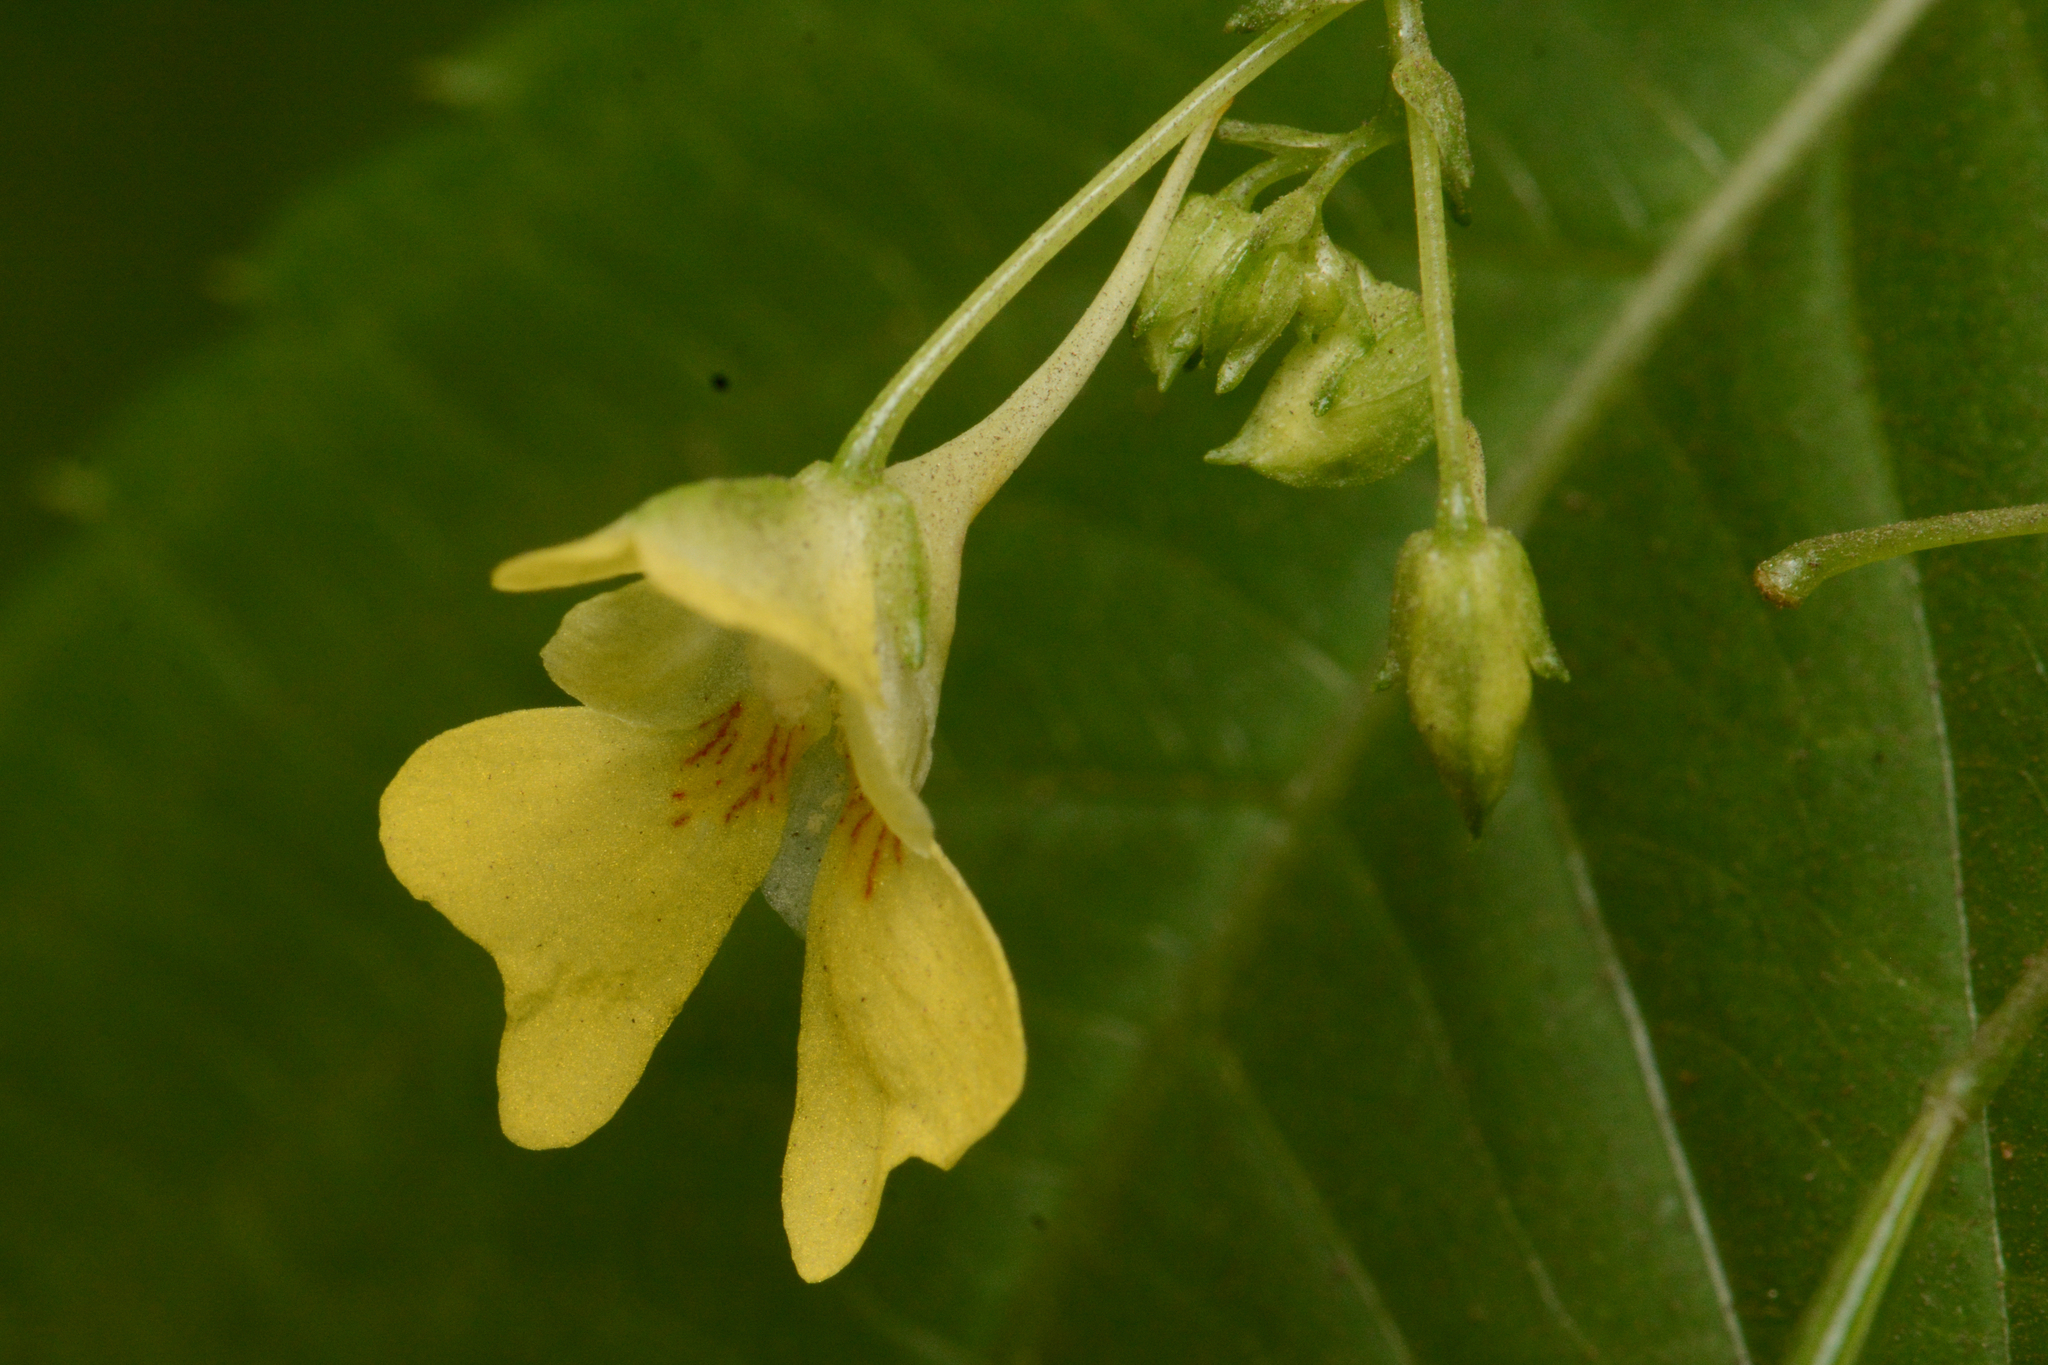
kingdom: Plantae
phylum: Tracheophyta
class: Magnoliopsida
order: Ericales
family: Balsaminaceae
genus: Impatiens
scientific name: Impatiens parviflora
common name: Small balsam
